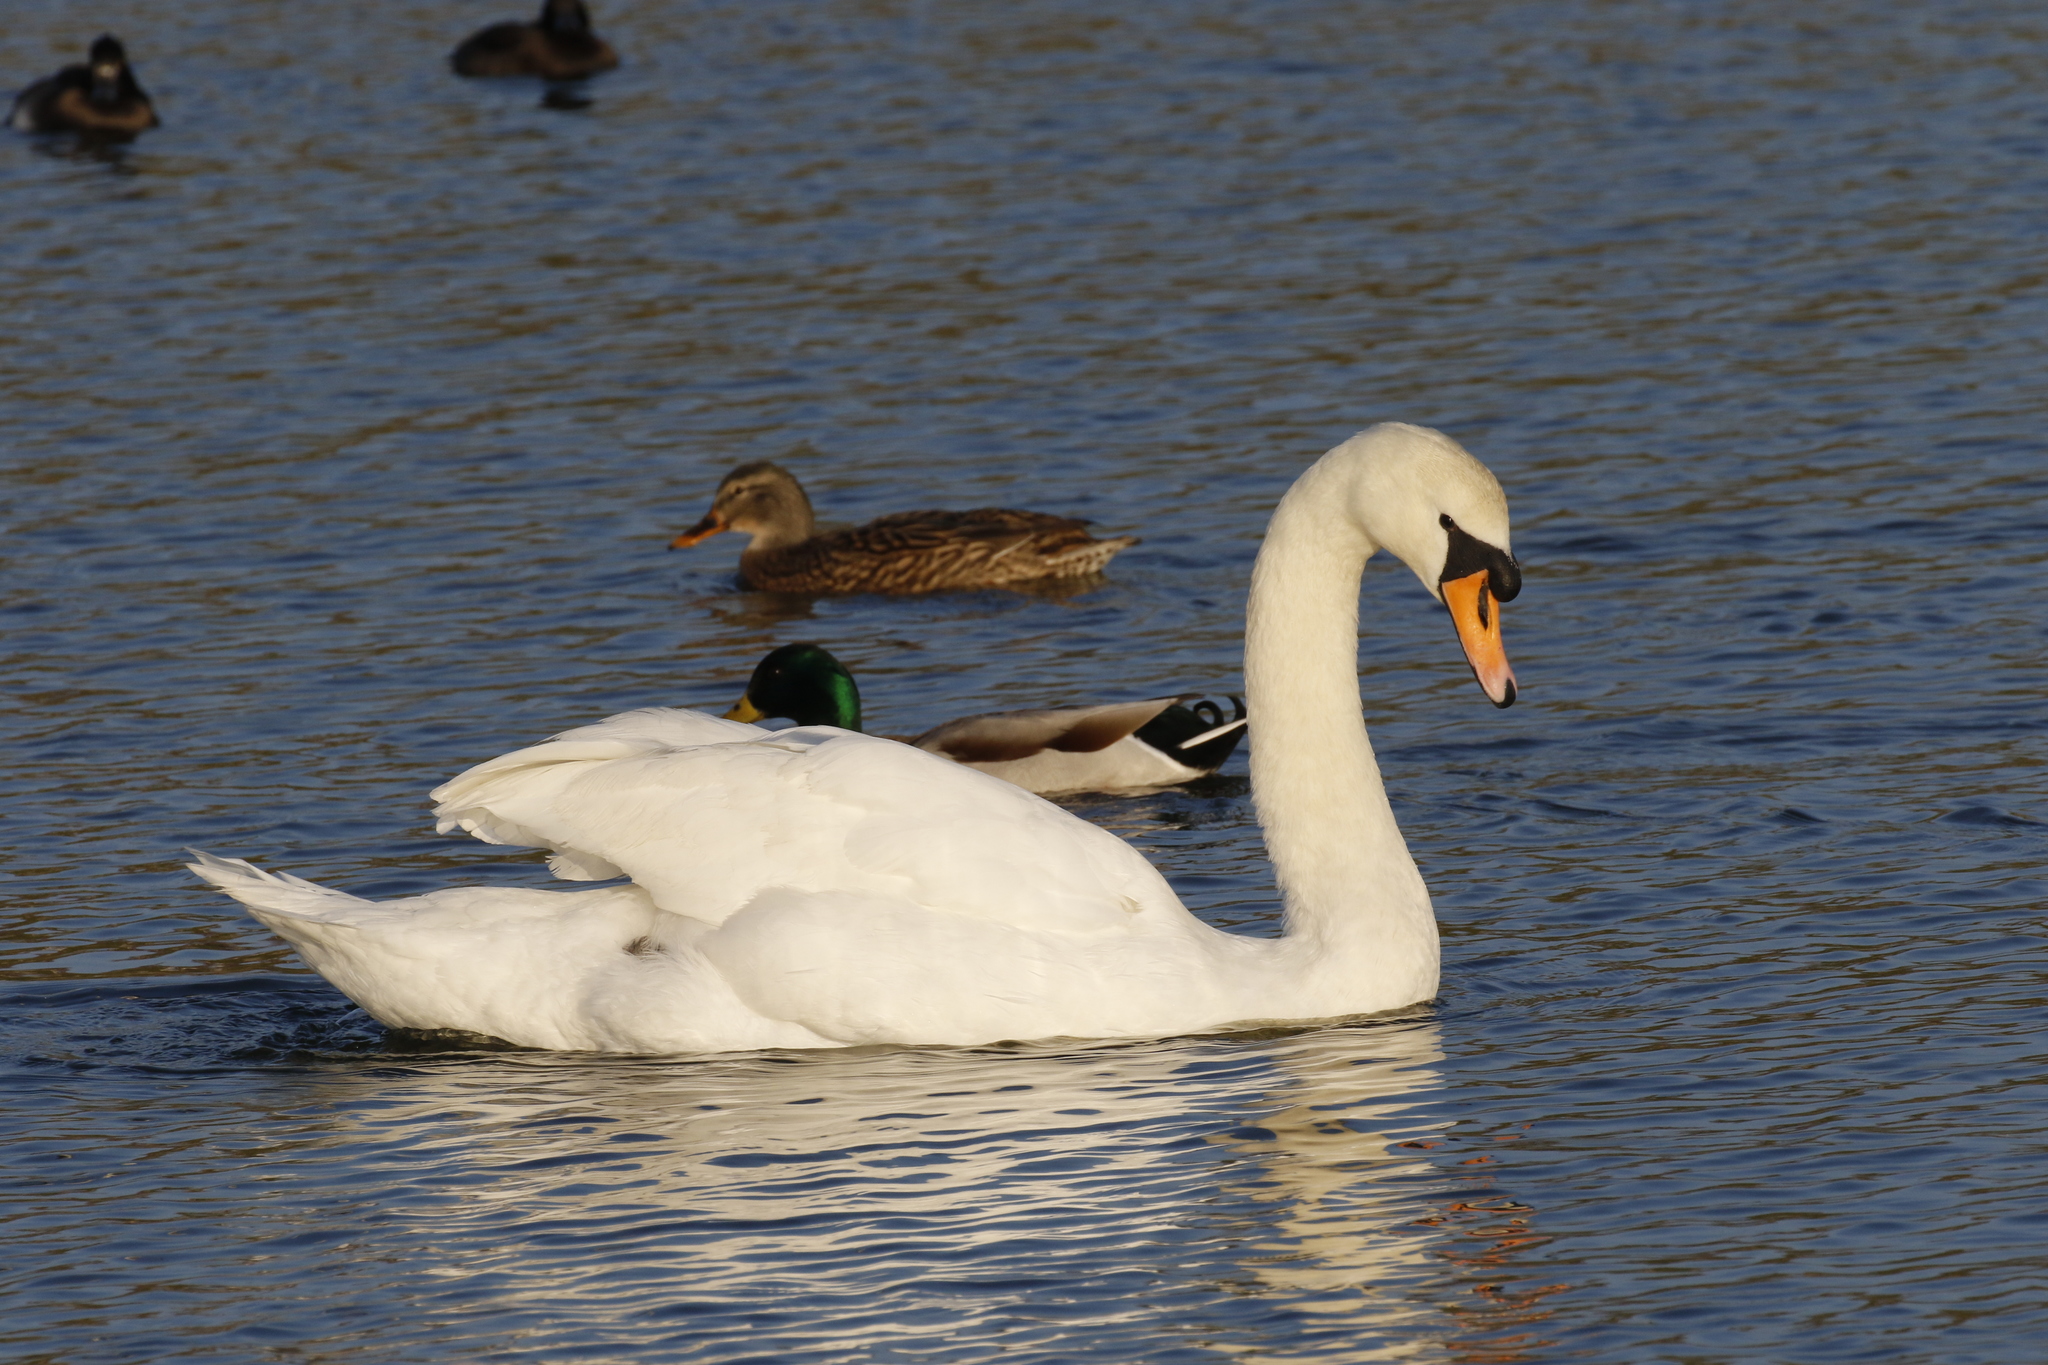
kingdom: Animalia
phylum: Chordata
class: Aves
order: Anseriformes
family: Anatidae
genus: Cygnus
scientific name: Cygnus olor
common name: Mute swan
